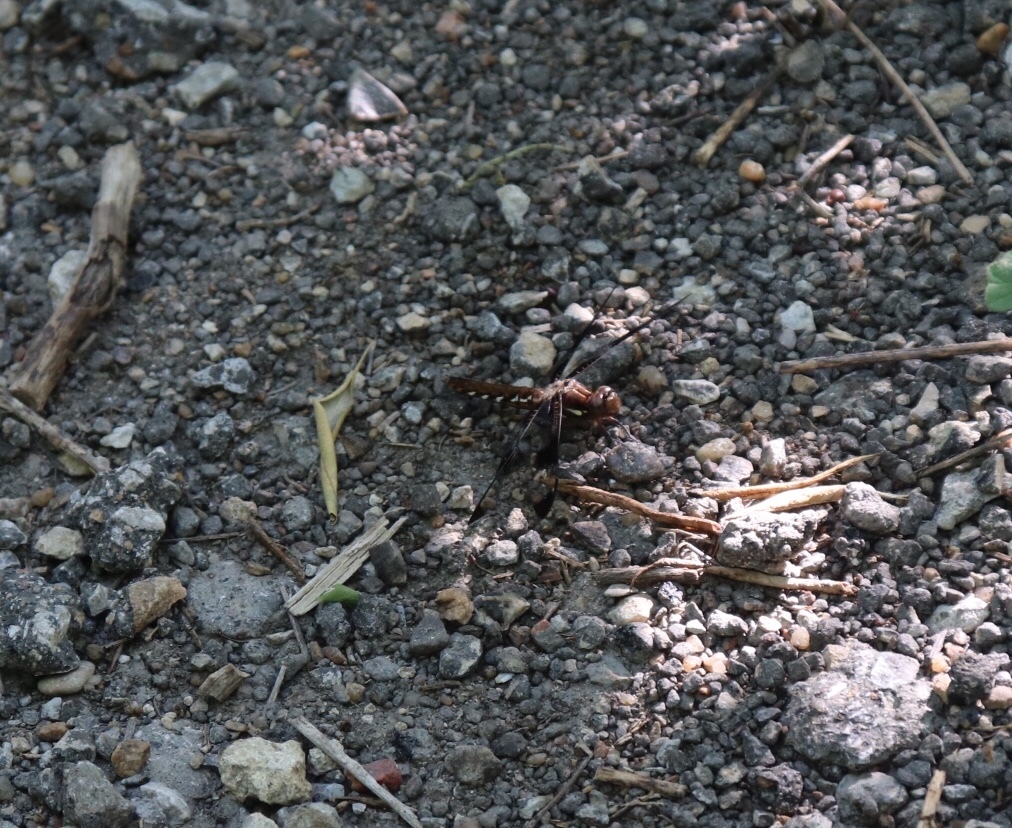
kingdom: Animalia
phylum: Arthropoda
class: Insecta
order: Odonata
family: Libellulidae
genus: Plathemis
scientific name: Plathemis lydia
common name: Common whitetail
